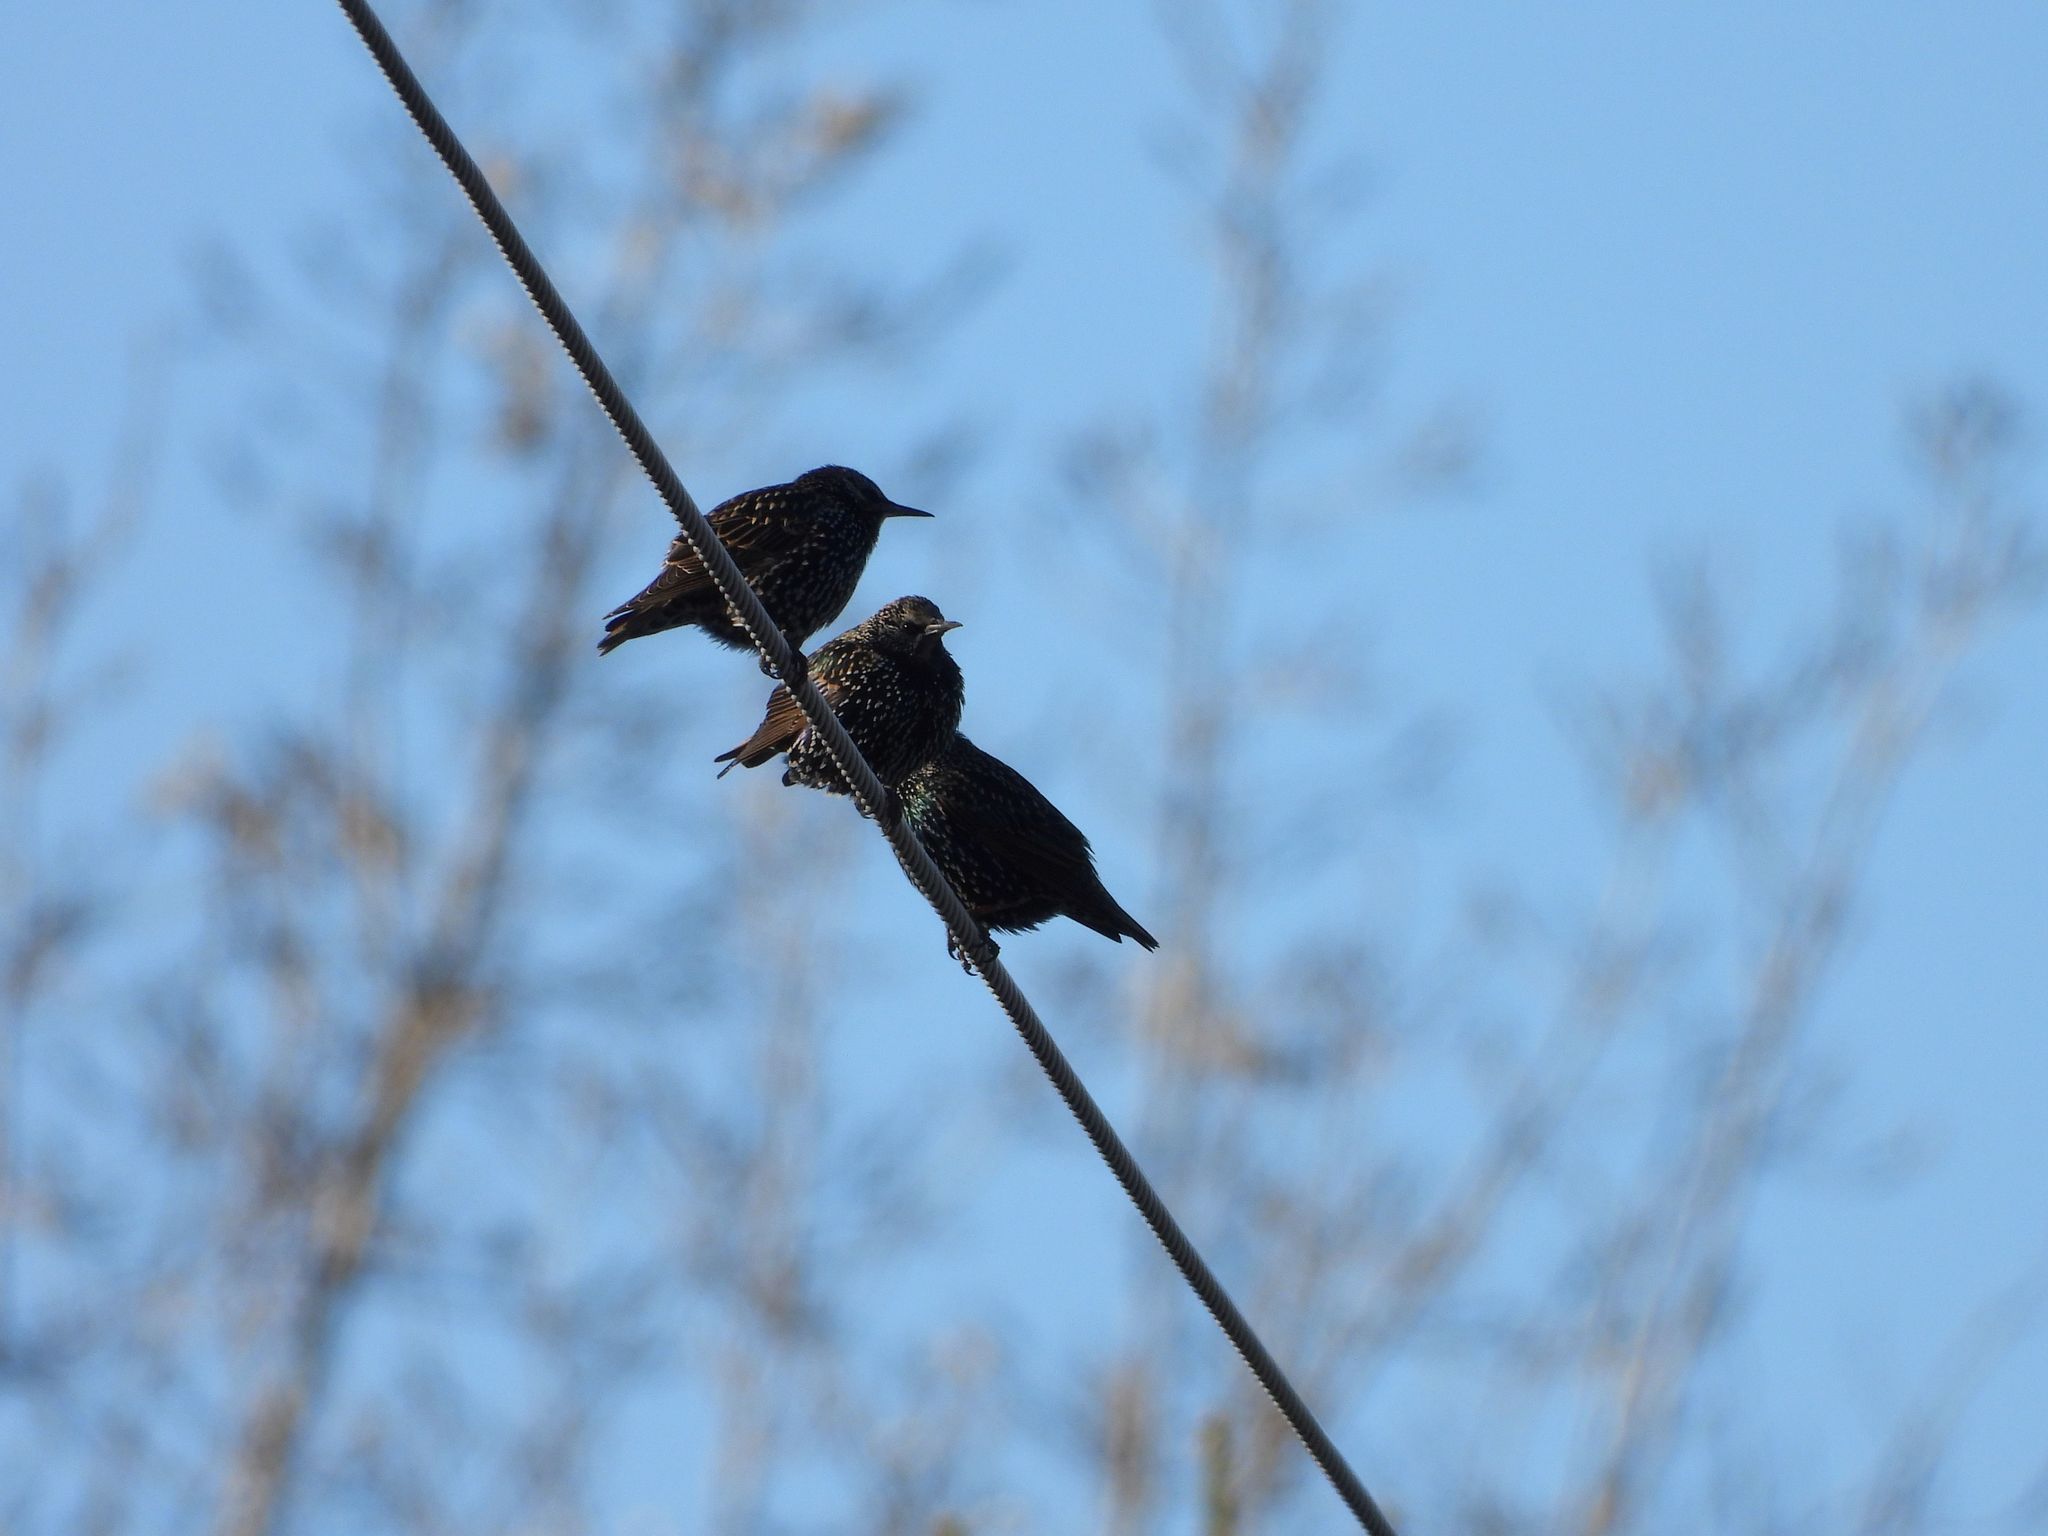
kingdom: Animalia
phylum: Chordata
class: Aves
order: Passeriformes
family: Sturnidae
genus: Sturnus
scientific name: Sturnus vulgaris
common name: Common starling
